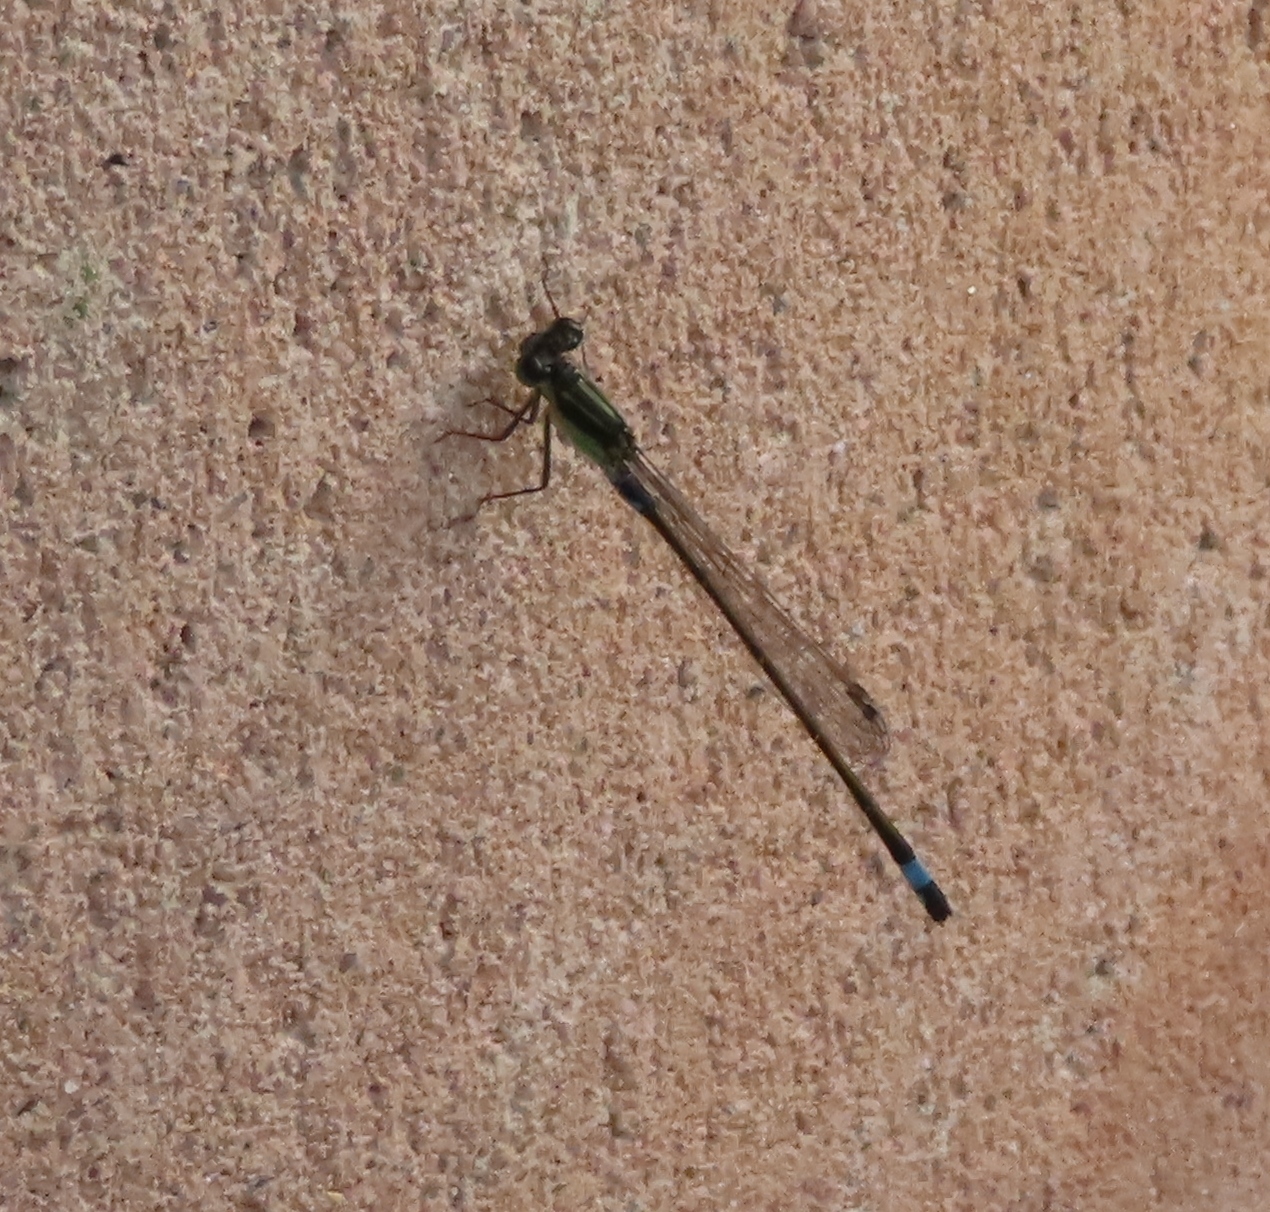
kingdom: Animalia
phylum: Arthropoda
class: Insecta
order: Odonata
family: Coenagrionidae
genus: Ischnura
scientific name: Ischnura senegalensis
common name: Tropical bluetail
